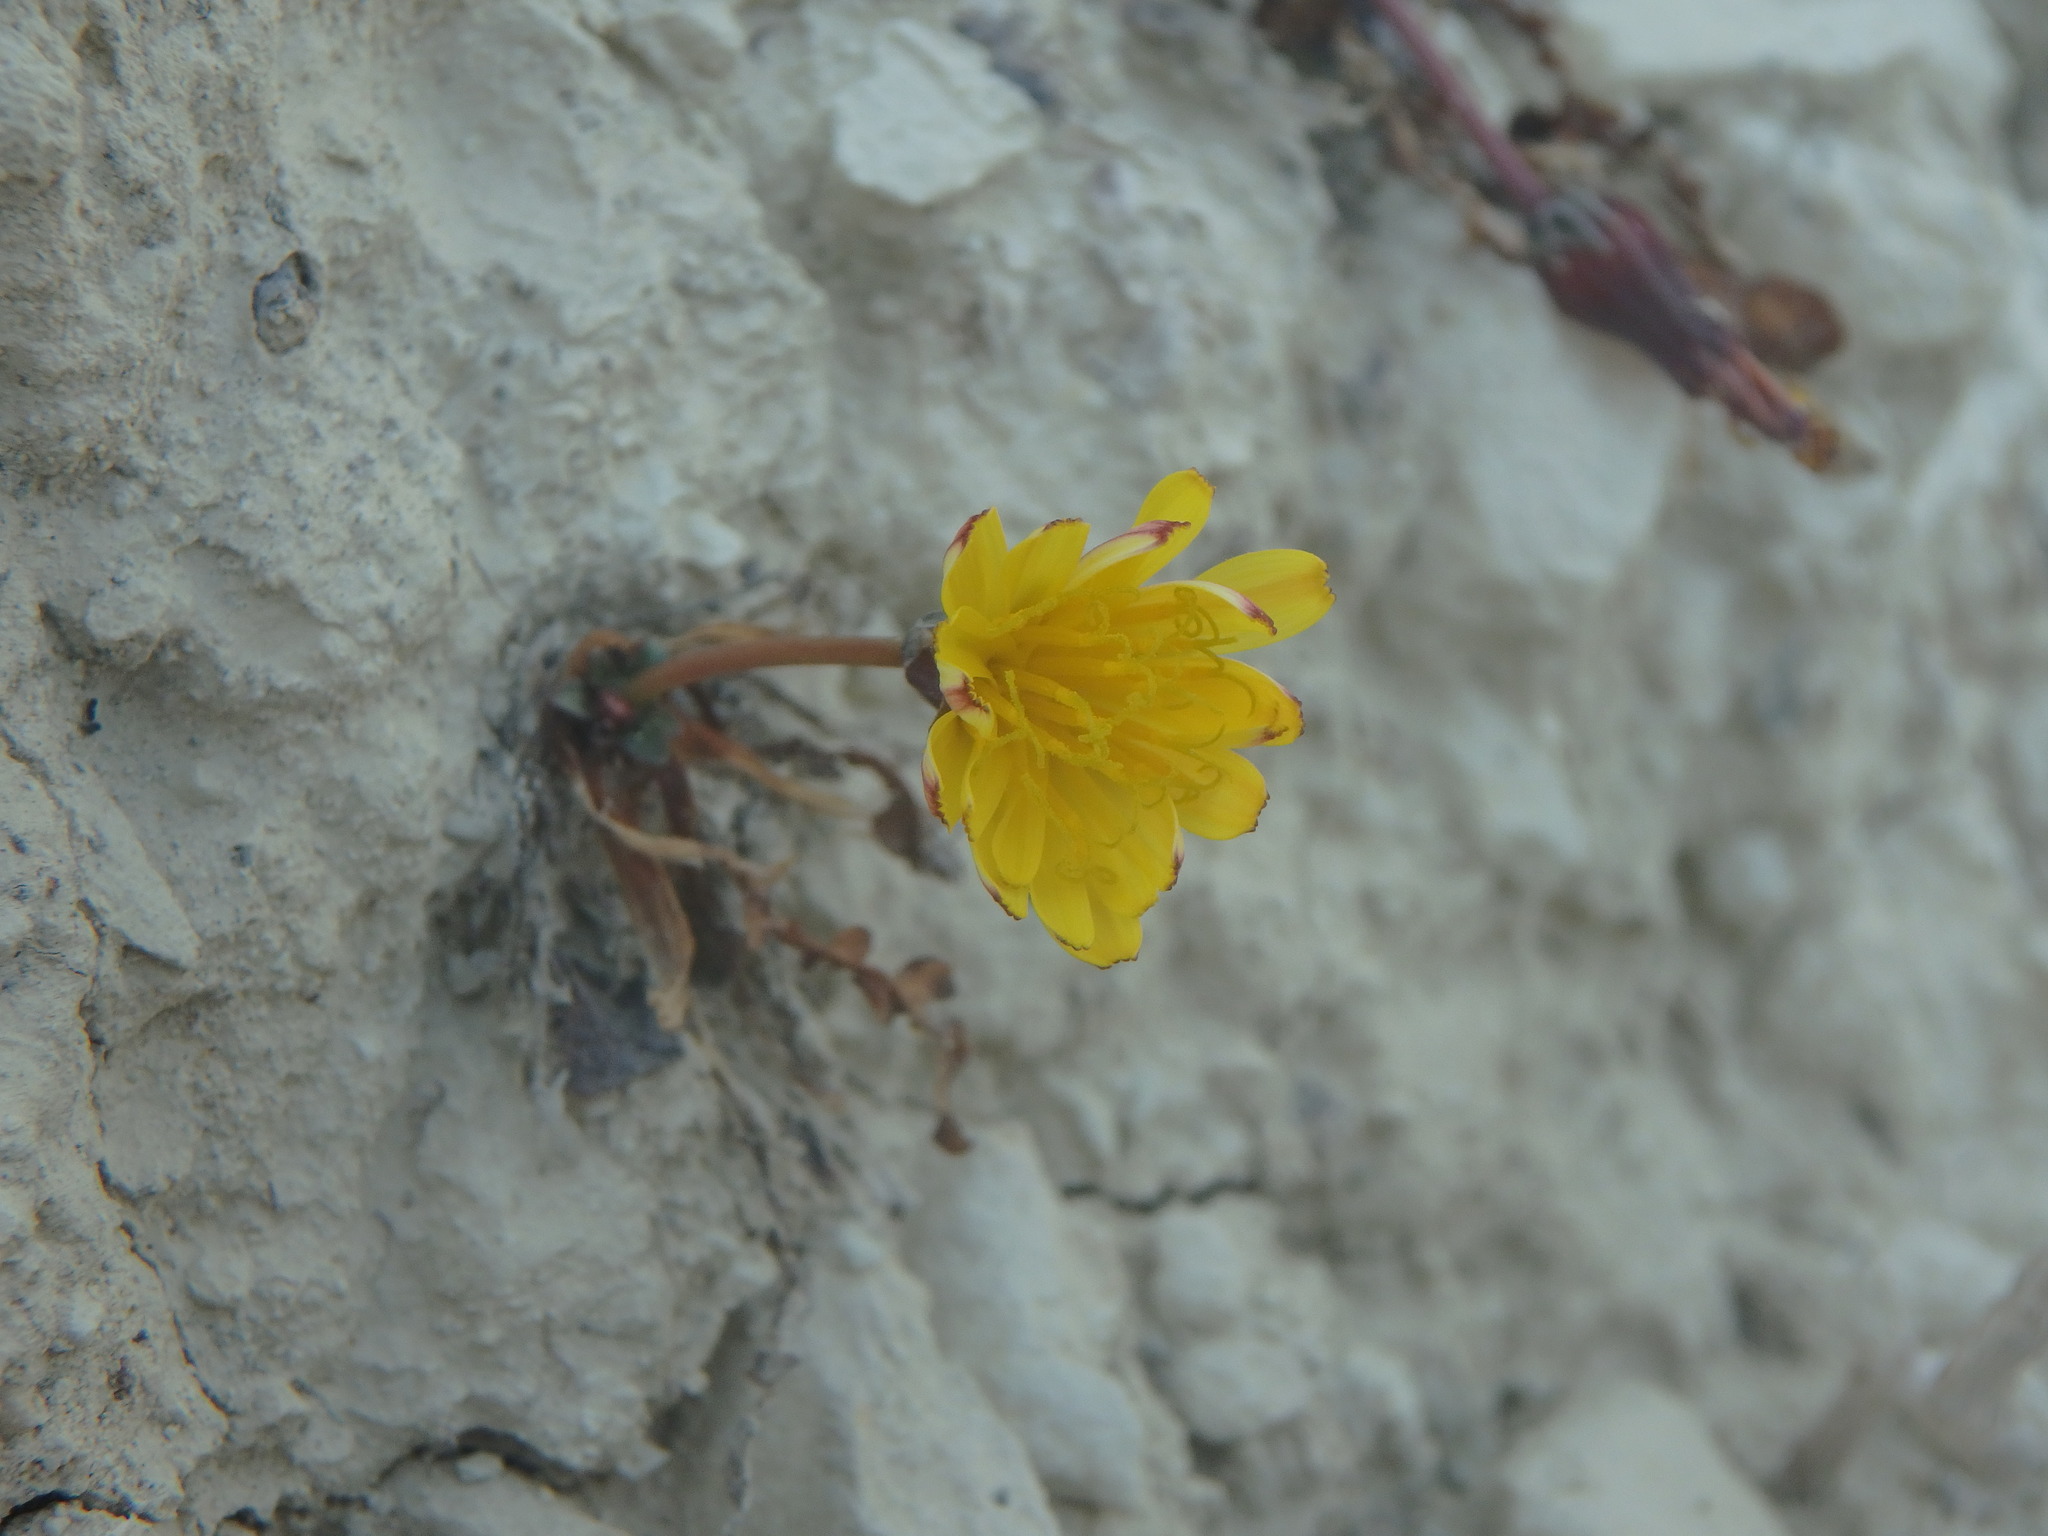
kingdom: Plantae
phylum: Tracheophyta
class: Magnoliopsida
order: Asterales
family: Asteraceae
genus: Taraxacum
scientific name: Taraxacum aphrogenes
